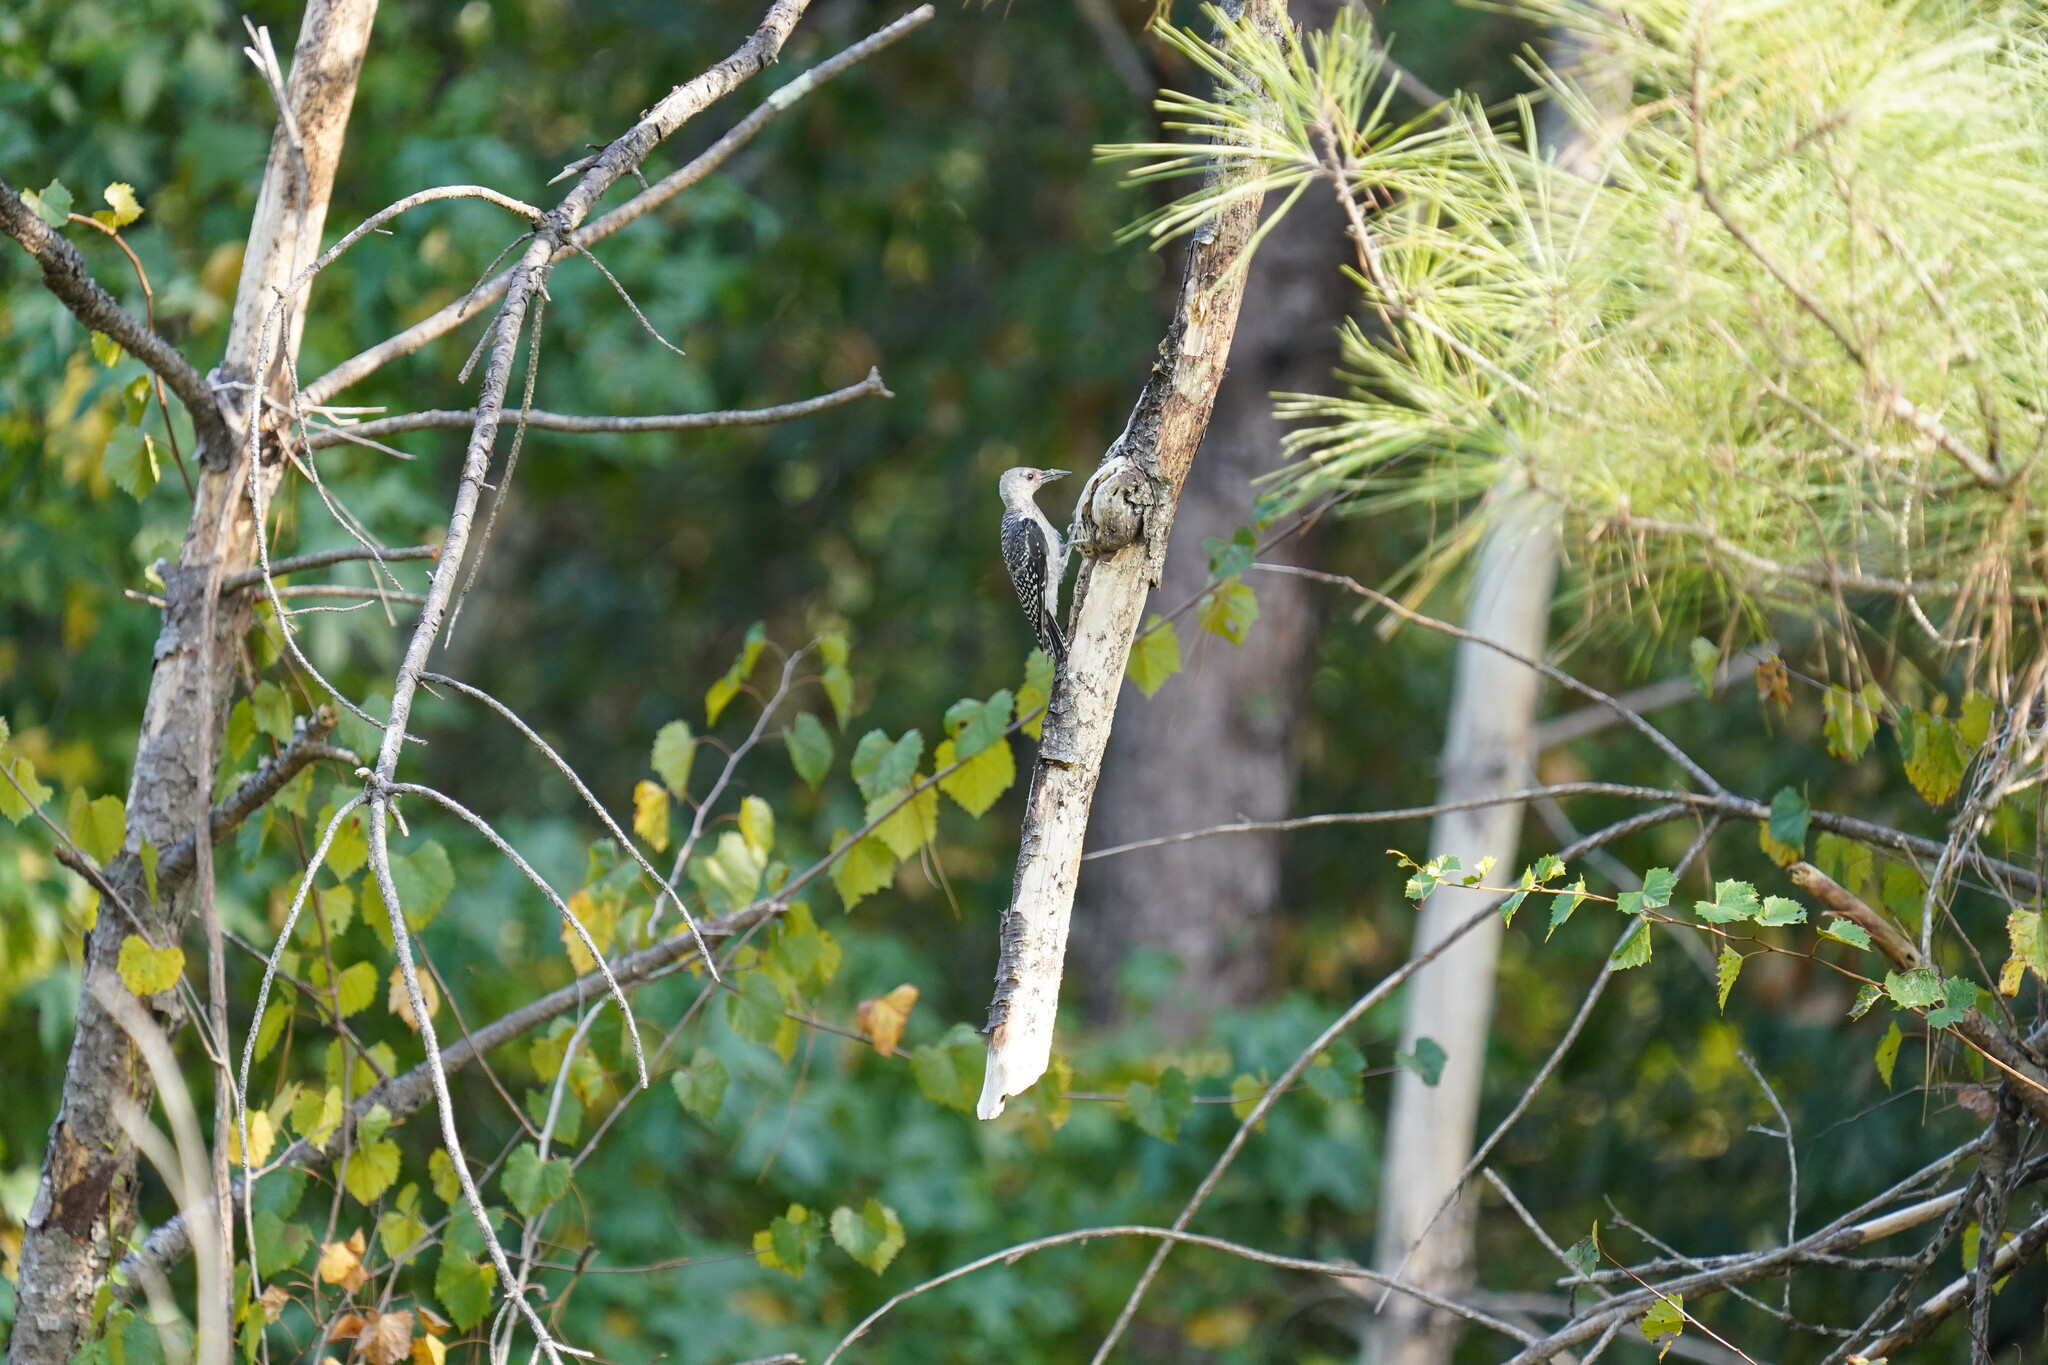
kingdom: Animalia
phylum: Chordata
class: Aves
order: Piciformes
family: Picidae
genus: Melanerpes
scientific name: Melanerpes carolinus
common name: Red-bellied woodpecker
